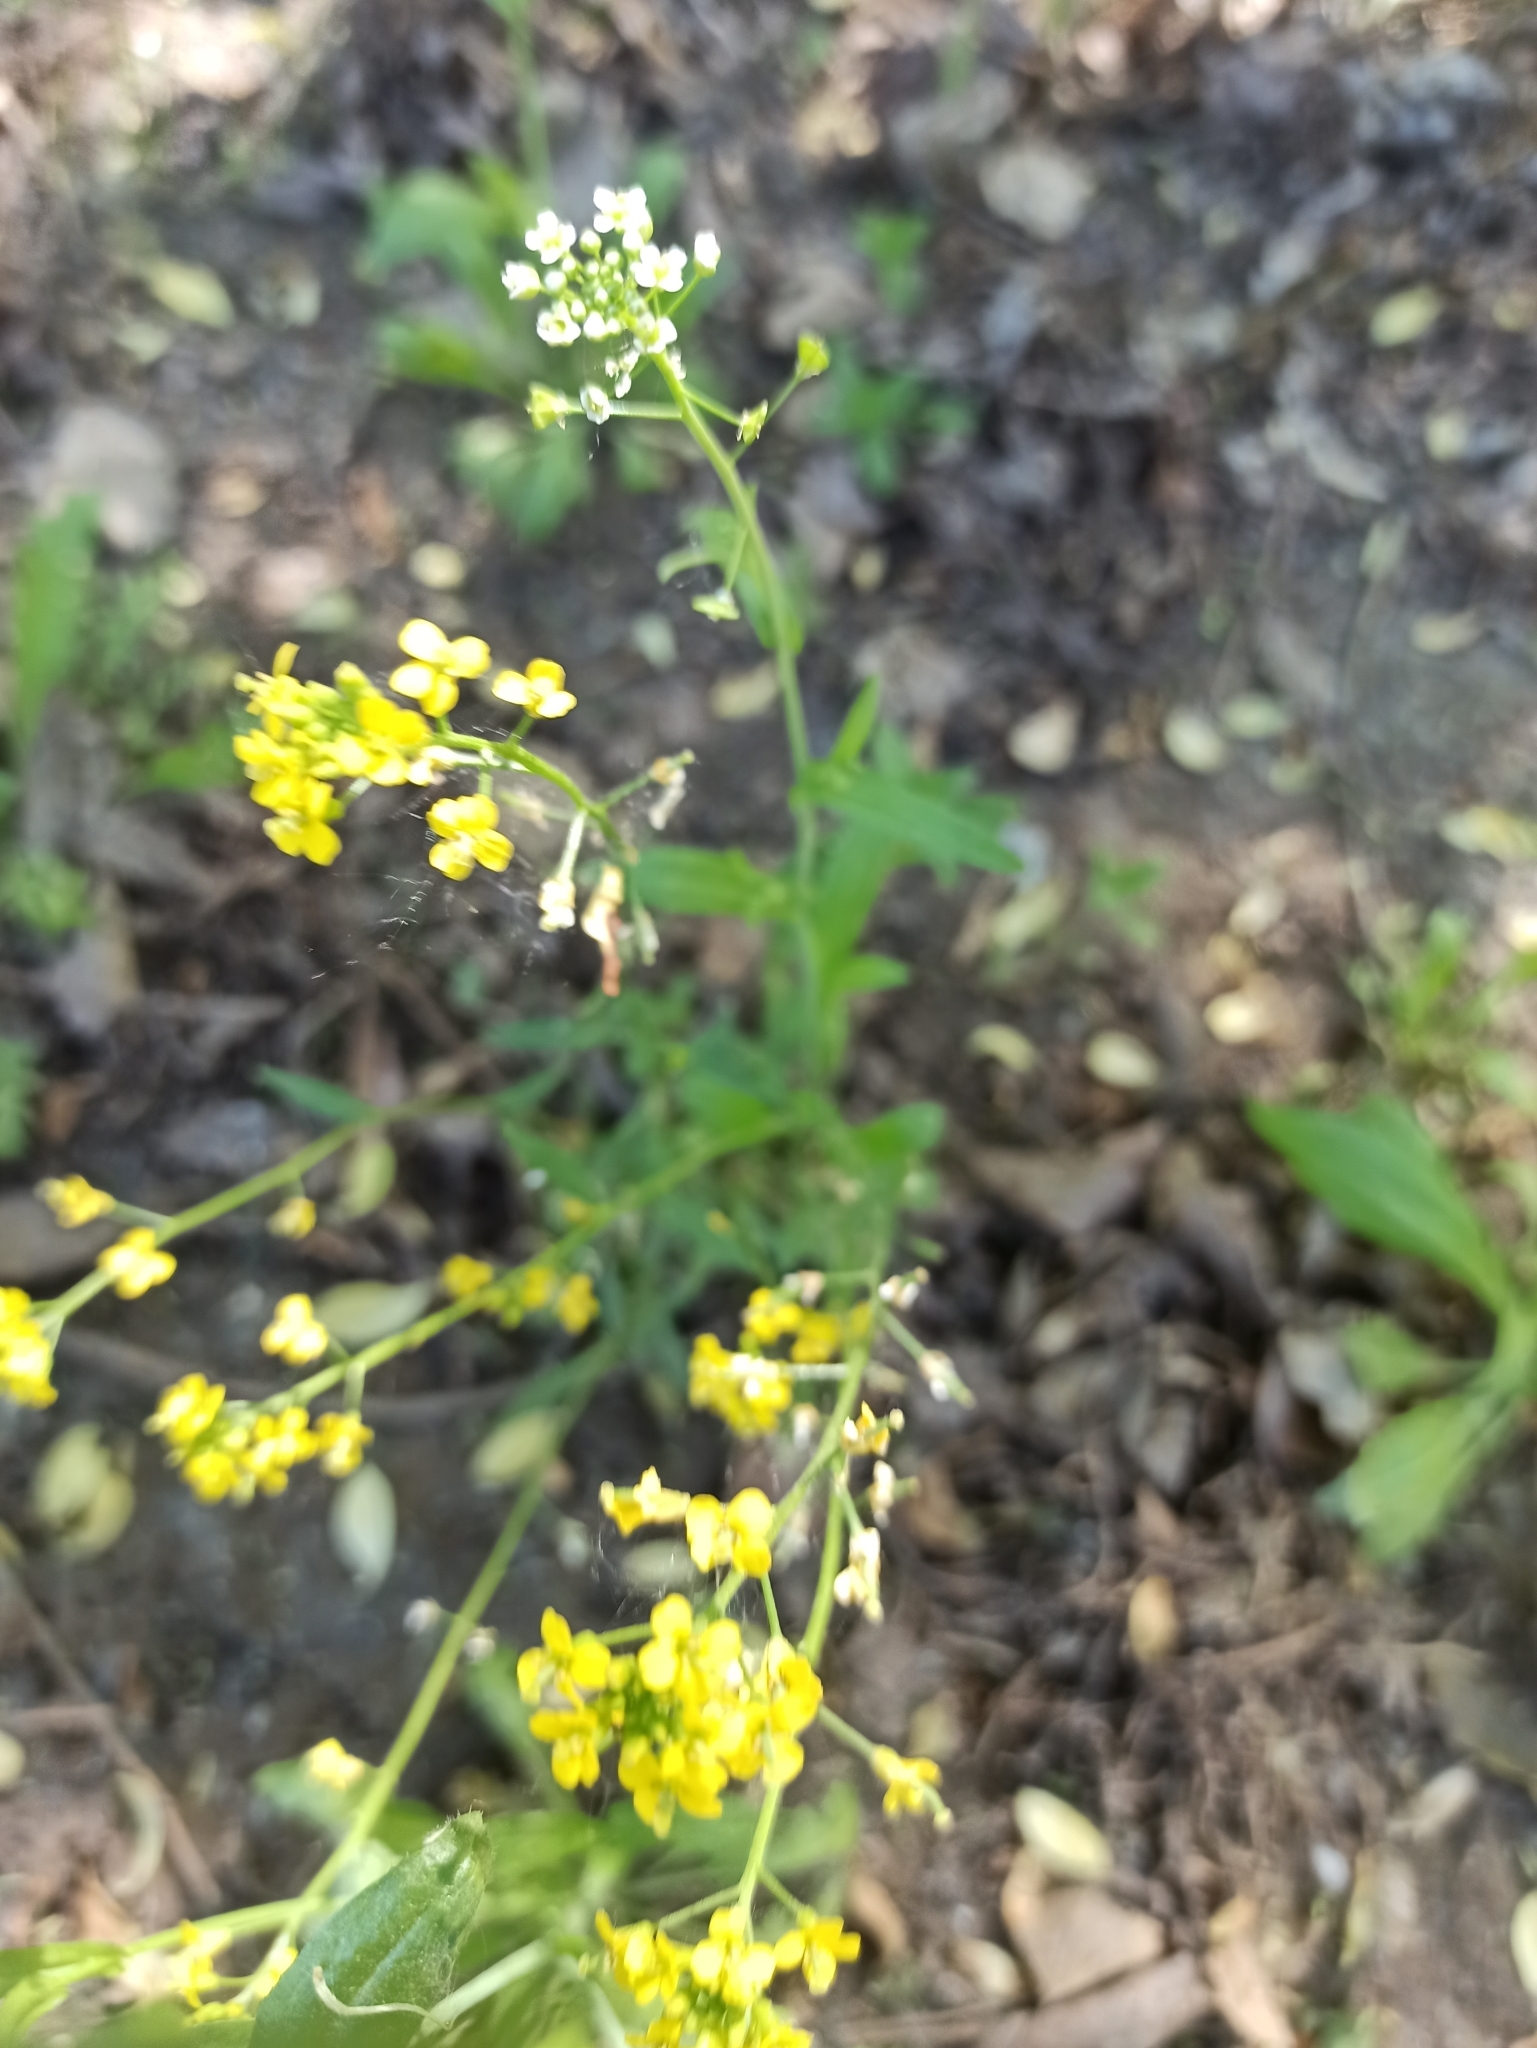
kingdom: Plantae
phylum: Tracheophyta
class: Magnoliopsida
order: Brassicales
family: Brassicaceae
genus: Barbarea
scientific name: Barbarea vulgaris
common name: Cressy-greens
